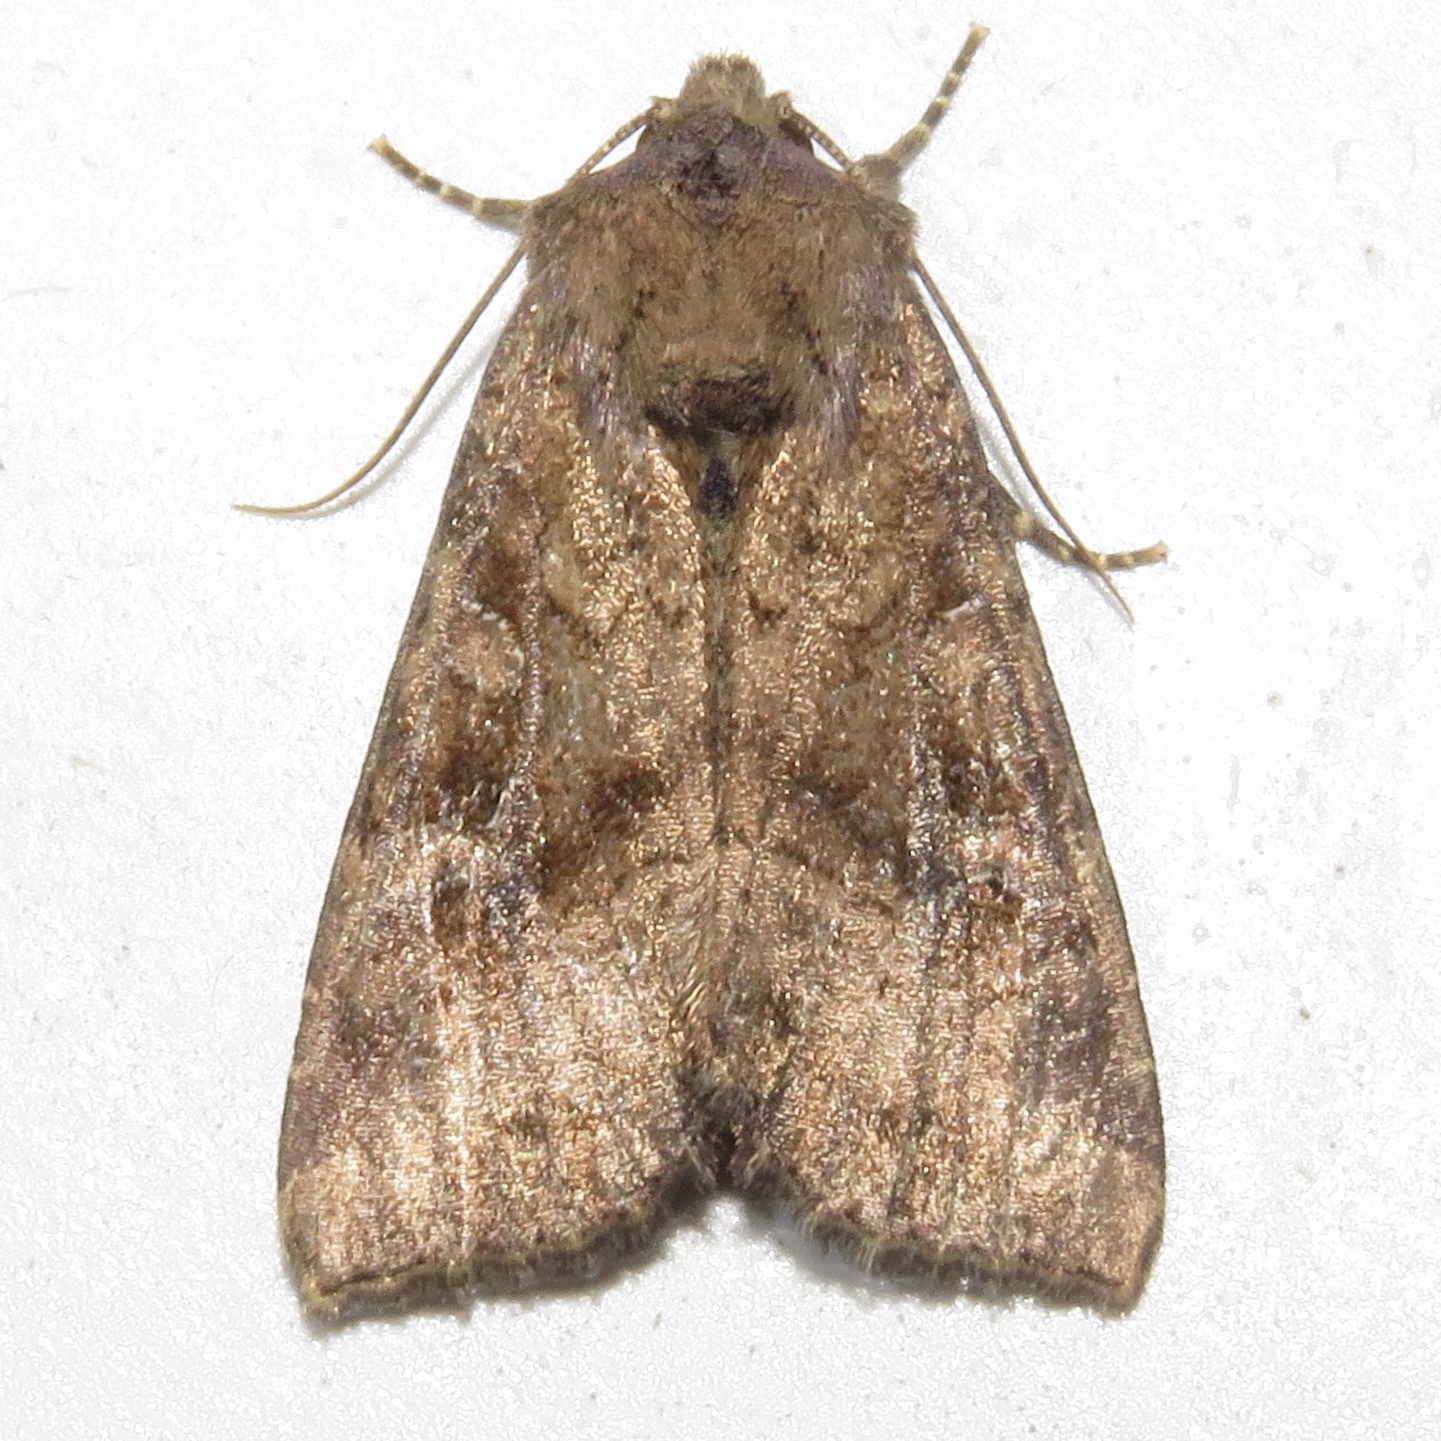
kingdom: Animalia
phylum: Arthropoda
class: Insecta
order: Lepidoptera
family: Noctuidae
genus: Loscopia
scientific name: Loscopia velata
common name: Veiled ear moth
